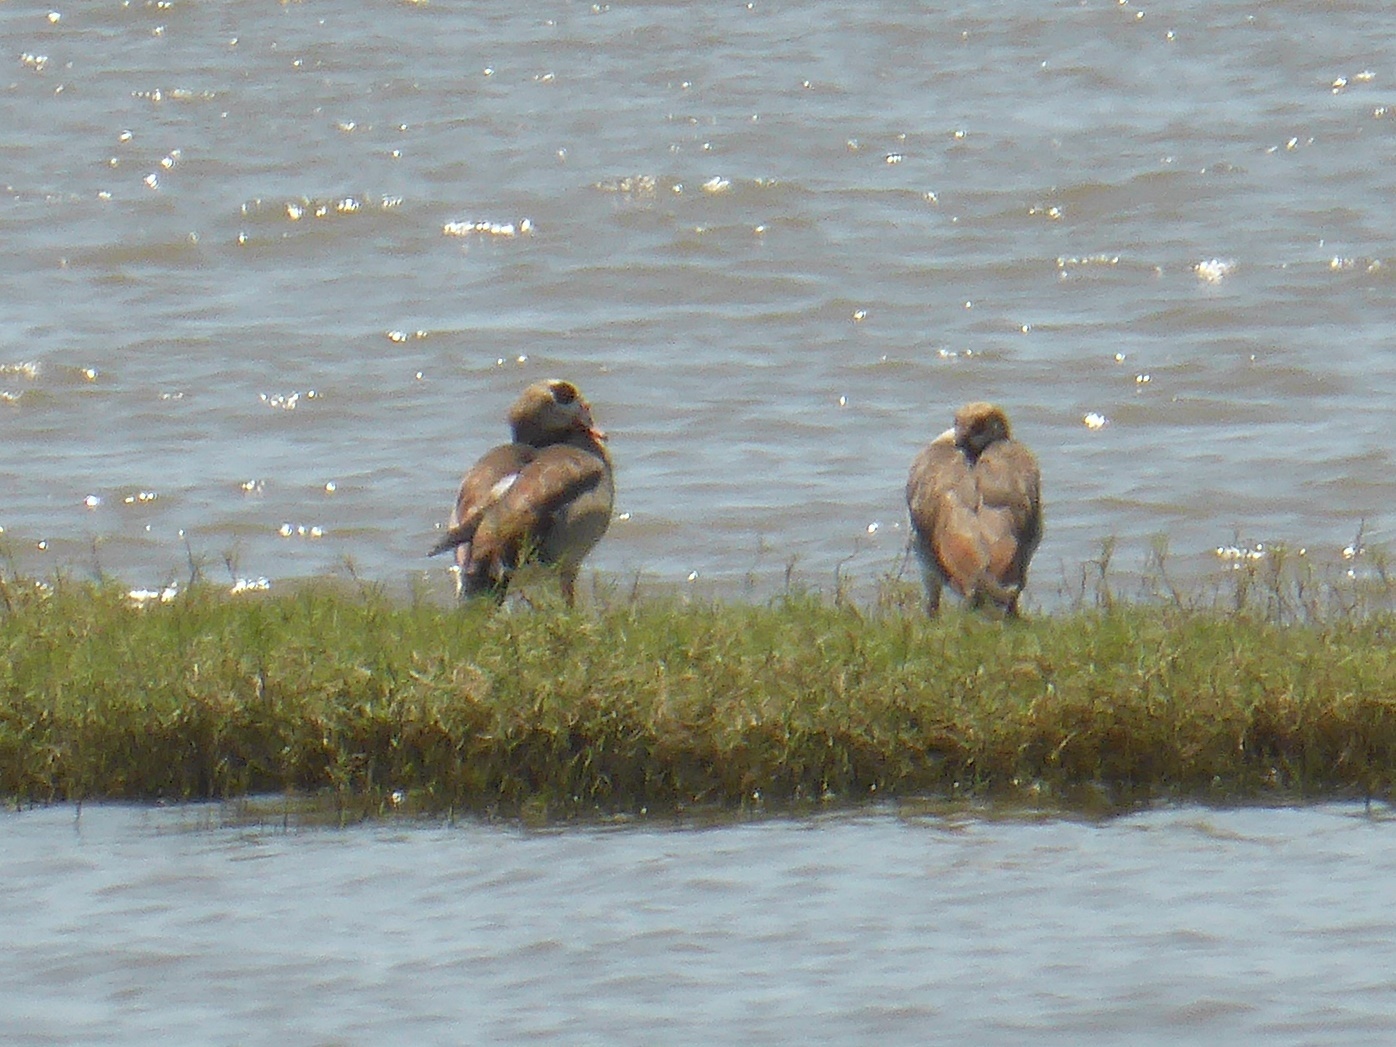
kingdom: Animalia
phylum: Chordata
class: Aves
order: Anseriformes
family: Anatidae
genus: Alopochen
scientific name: Alopochen aegyptiaca
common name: Egyptian goose
